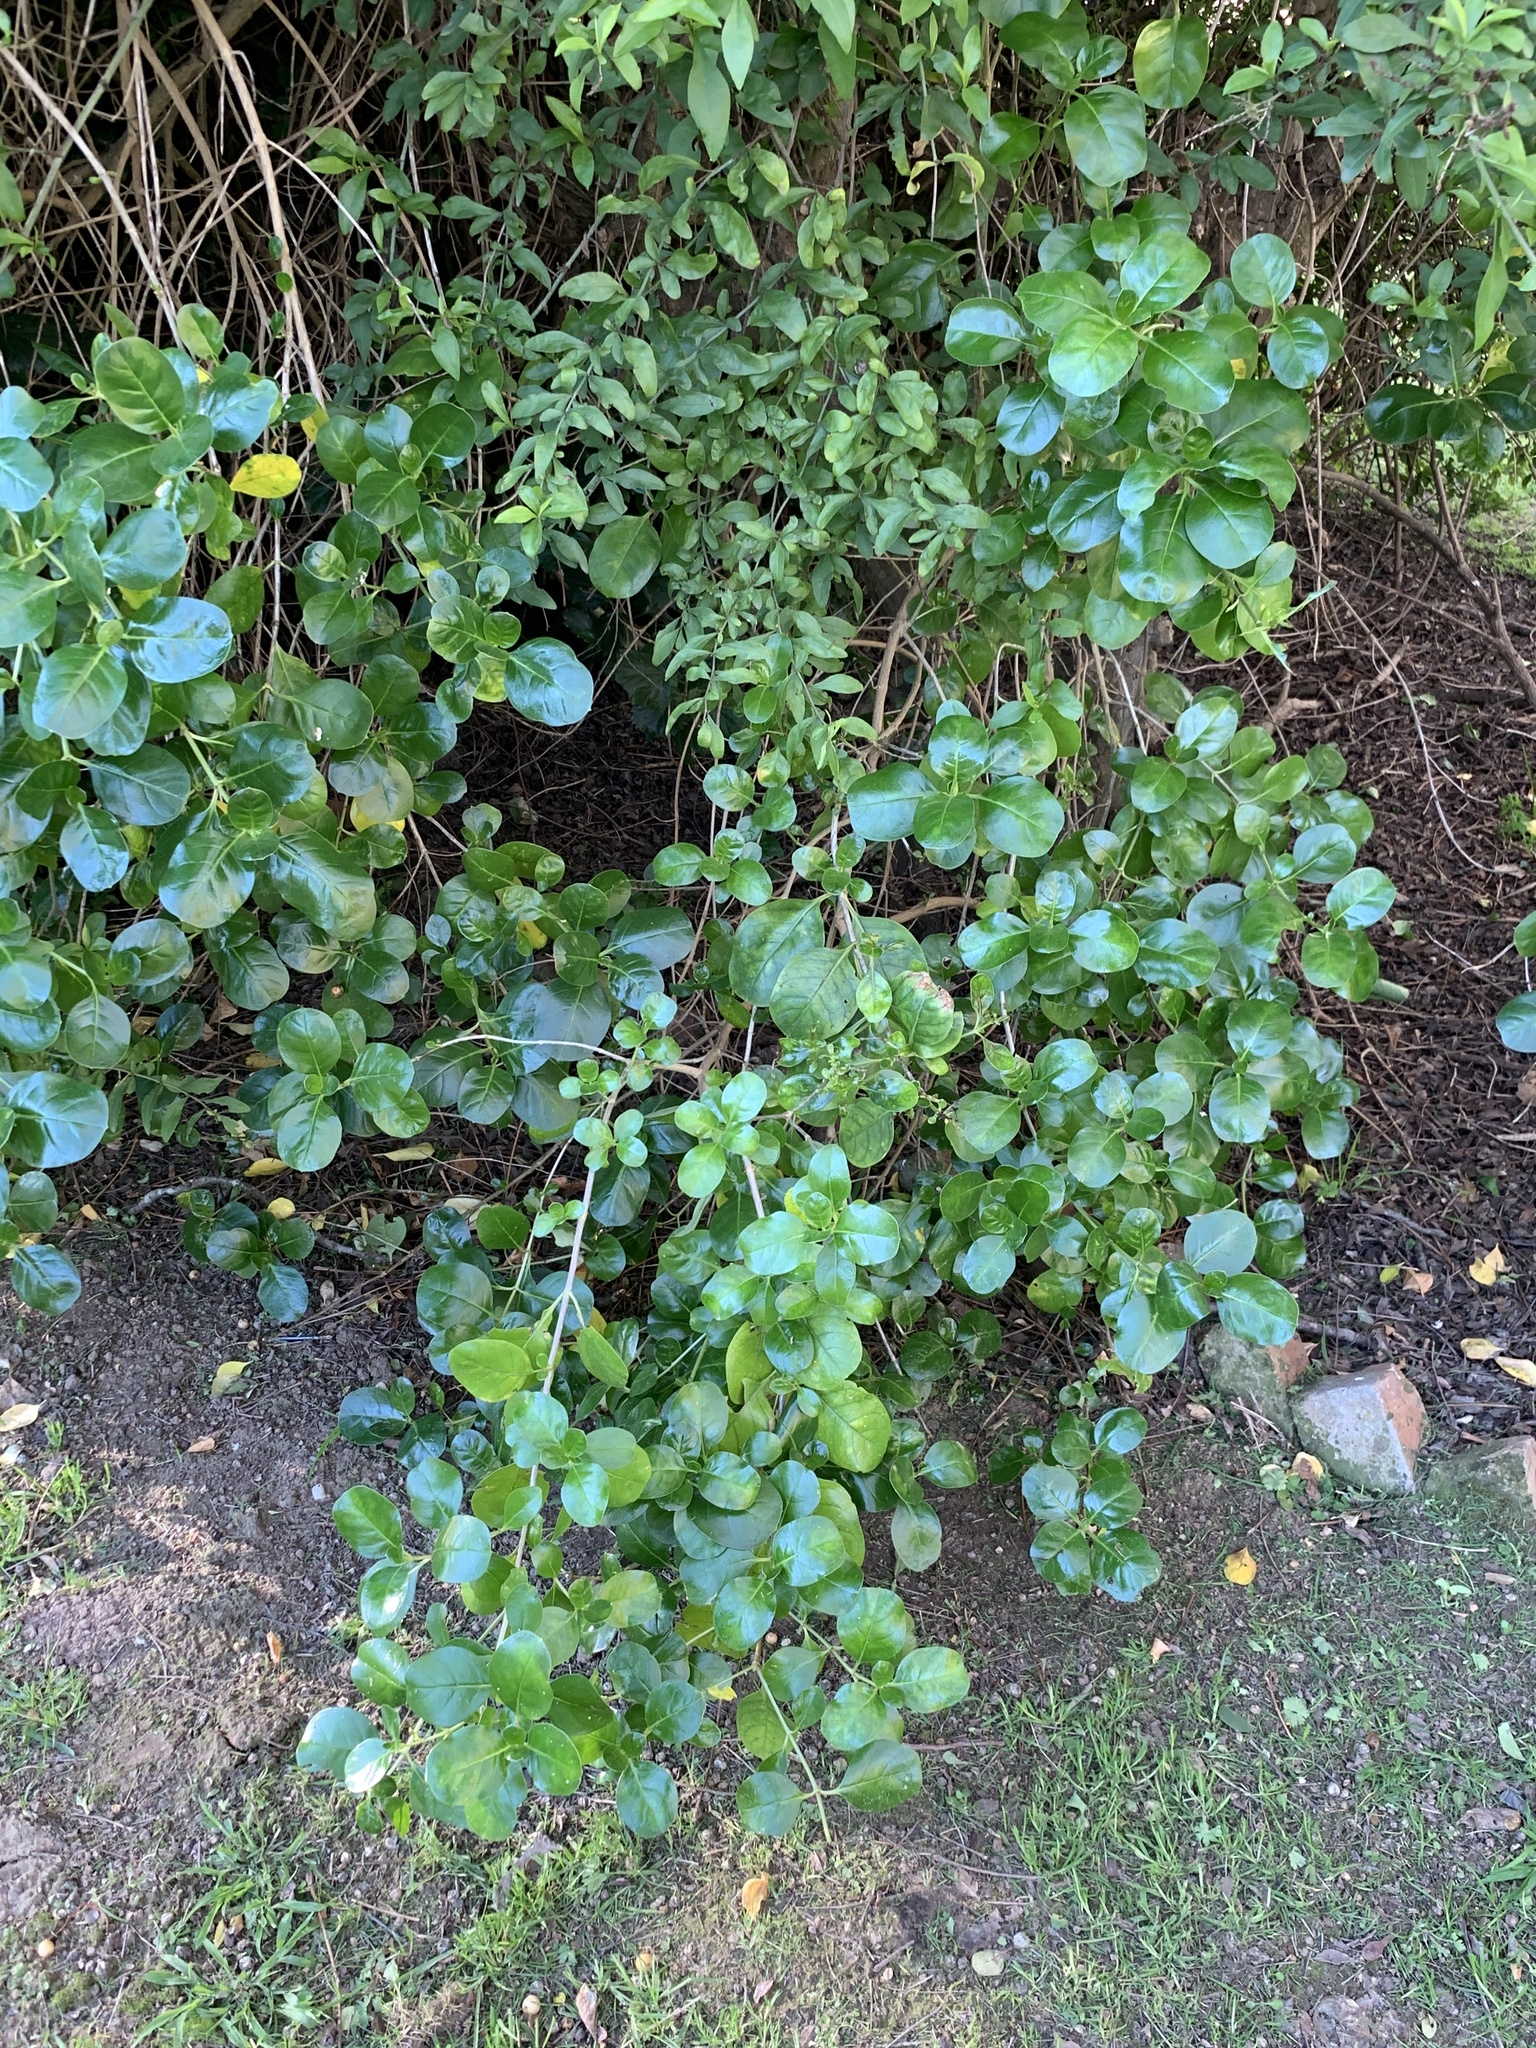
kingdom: Plantae
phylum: Tracheophyta
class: Magnoliopsida
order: Gentianales
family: Rubiaceae
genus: Coprosma
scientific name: Coprosma repens
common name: Tree bedstraw
